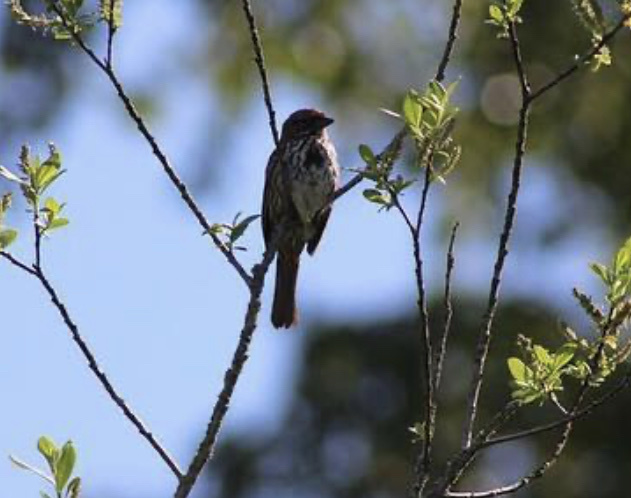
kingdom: Animalia
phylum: Chordata
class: Aves
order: Passeriformes
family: Passerellidae
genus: Melospiza
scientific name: Melospiza melodia
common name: Song sparrow
